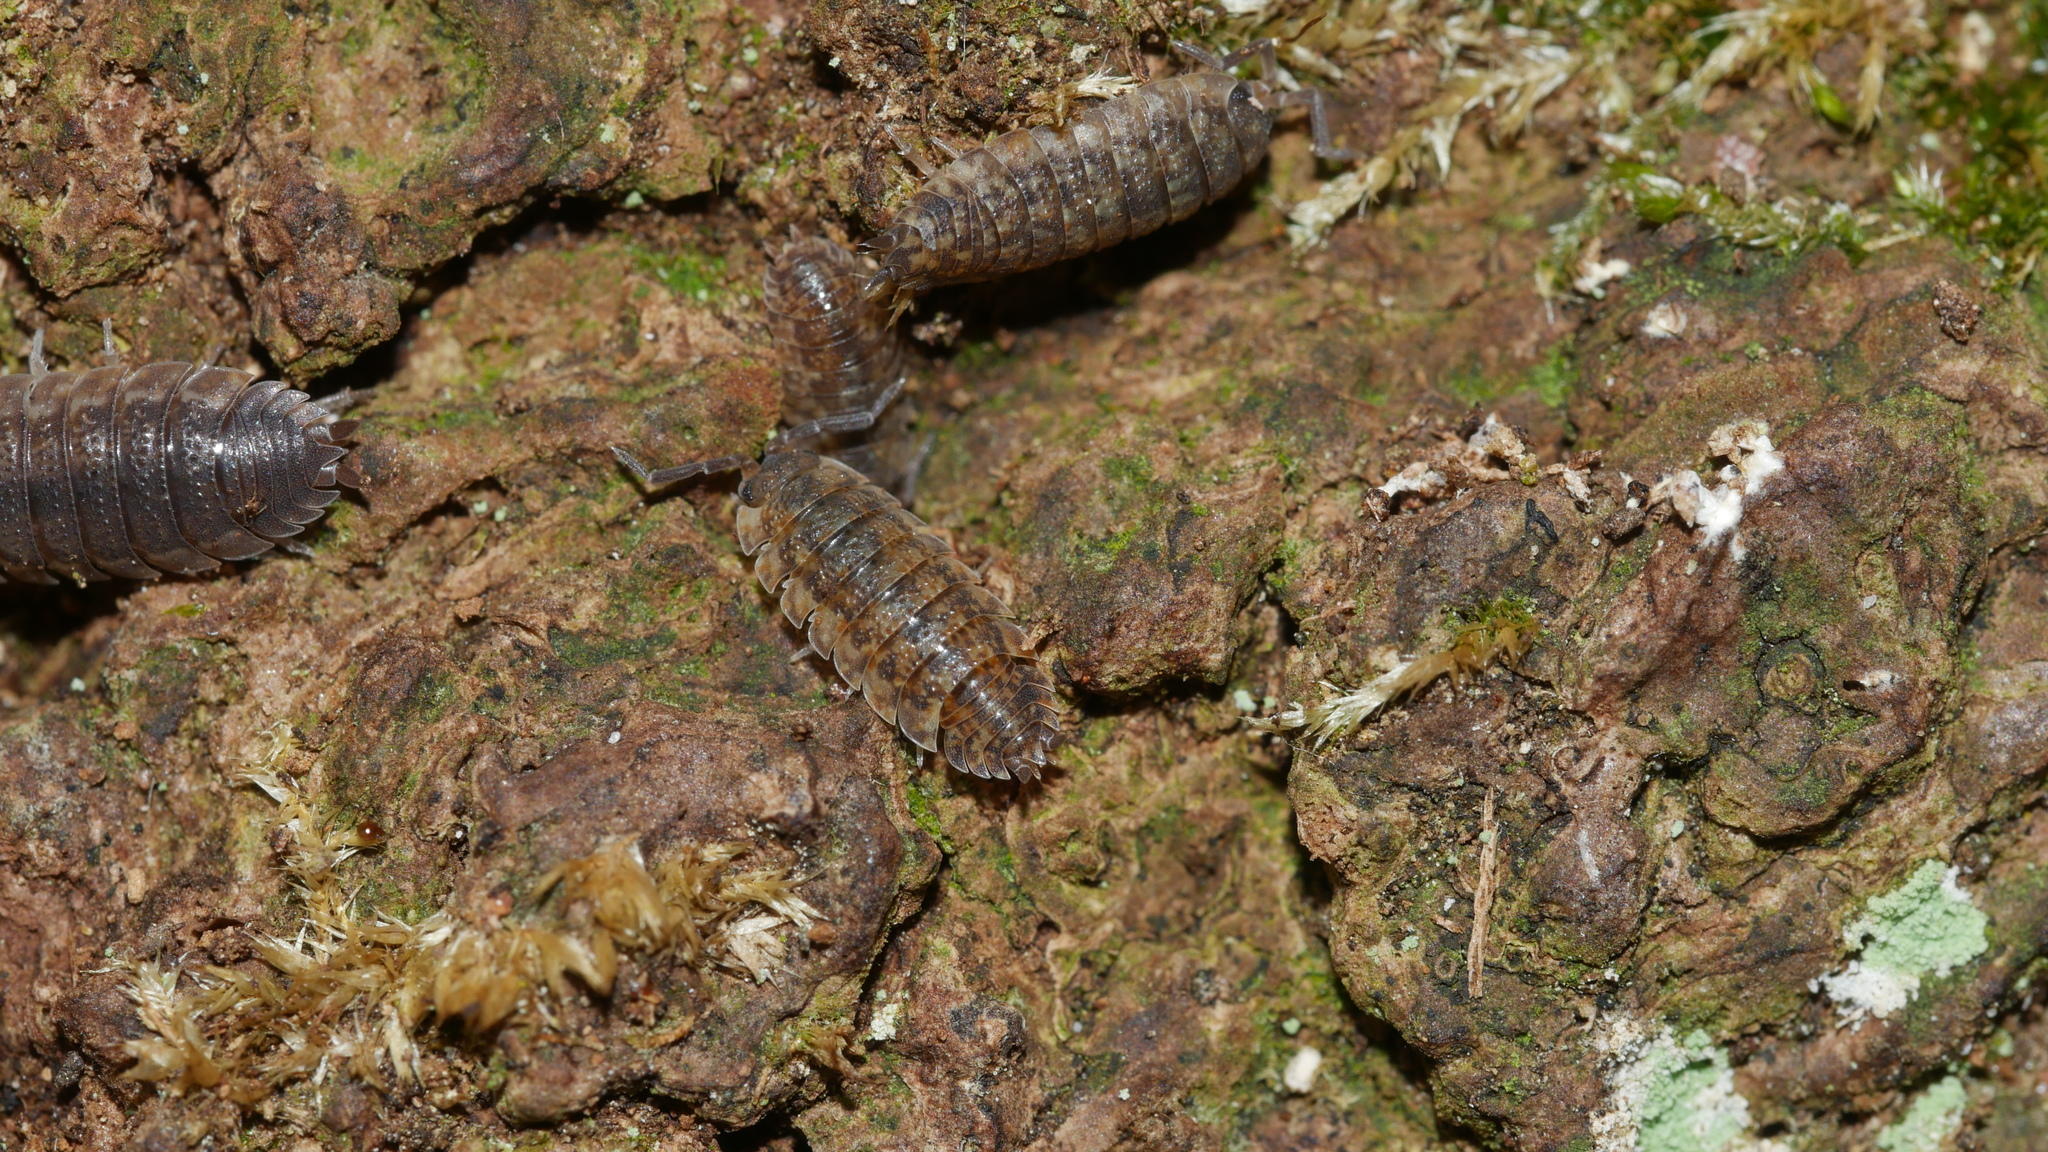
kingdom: Animalia
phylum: Arthropoda
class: Malacostraca
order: Isopoda
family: Porcellionidae
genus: Porcellio
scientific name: Porcellio scaber
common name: Common rough woodlouse
